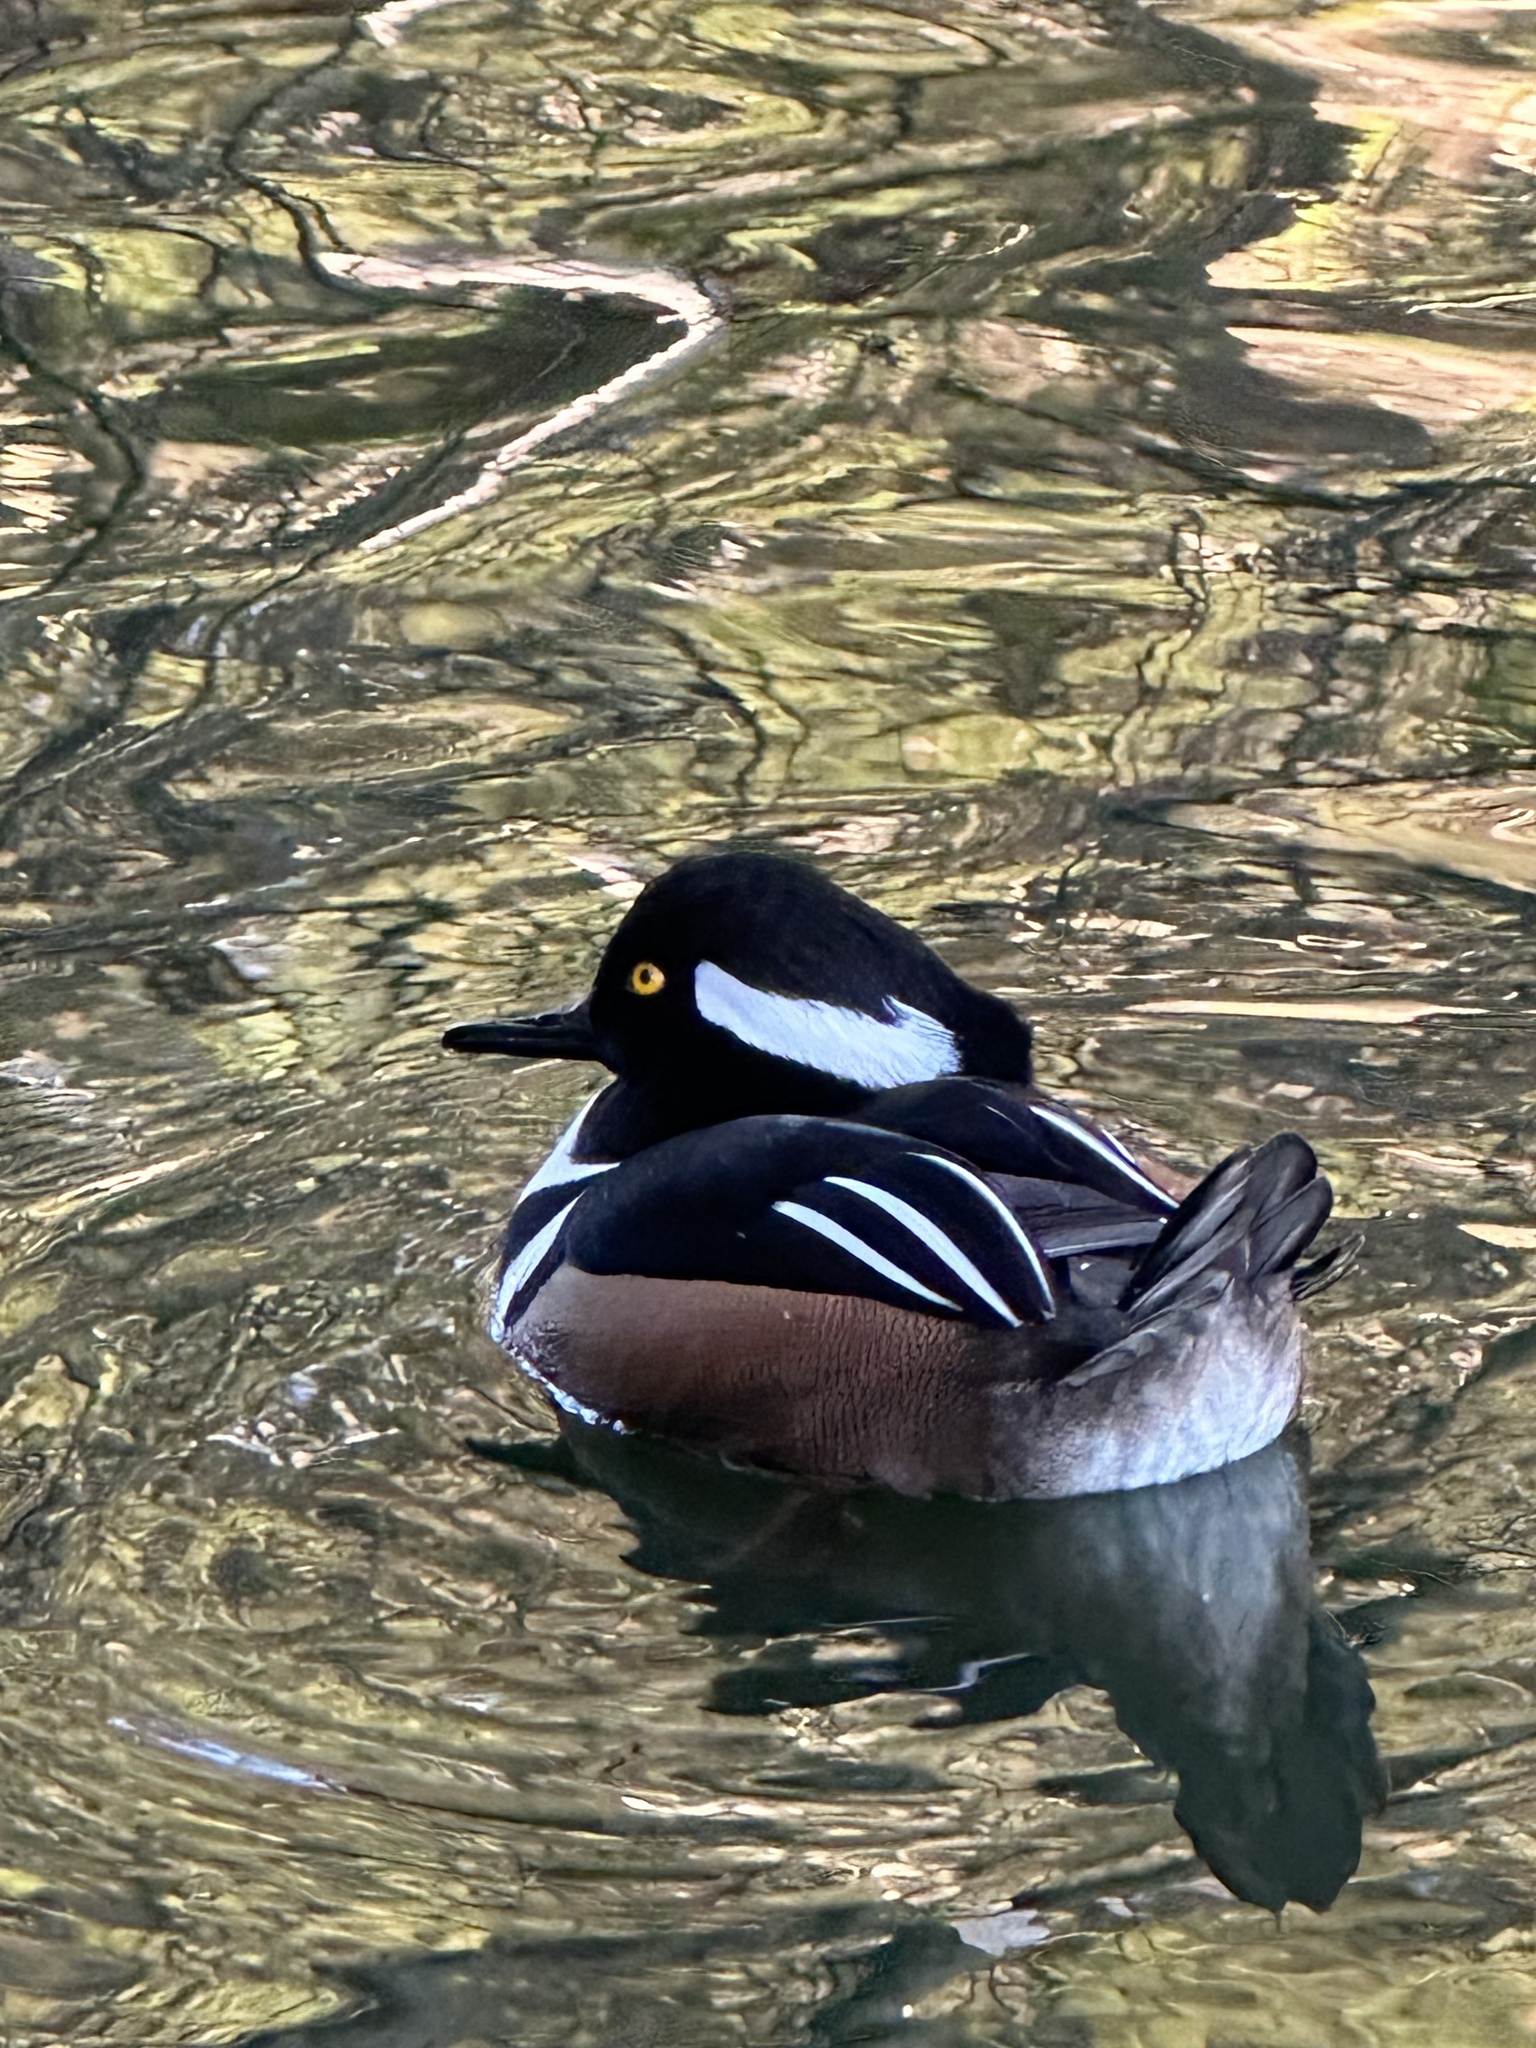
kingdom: Animalia
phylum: Chordata
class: Aves
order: Anseriformes
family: Anatidae
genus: Lophodytes
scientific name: Lophodytes cucullatus
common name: Hooded merganser
